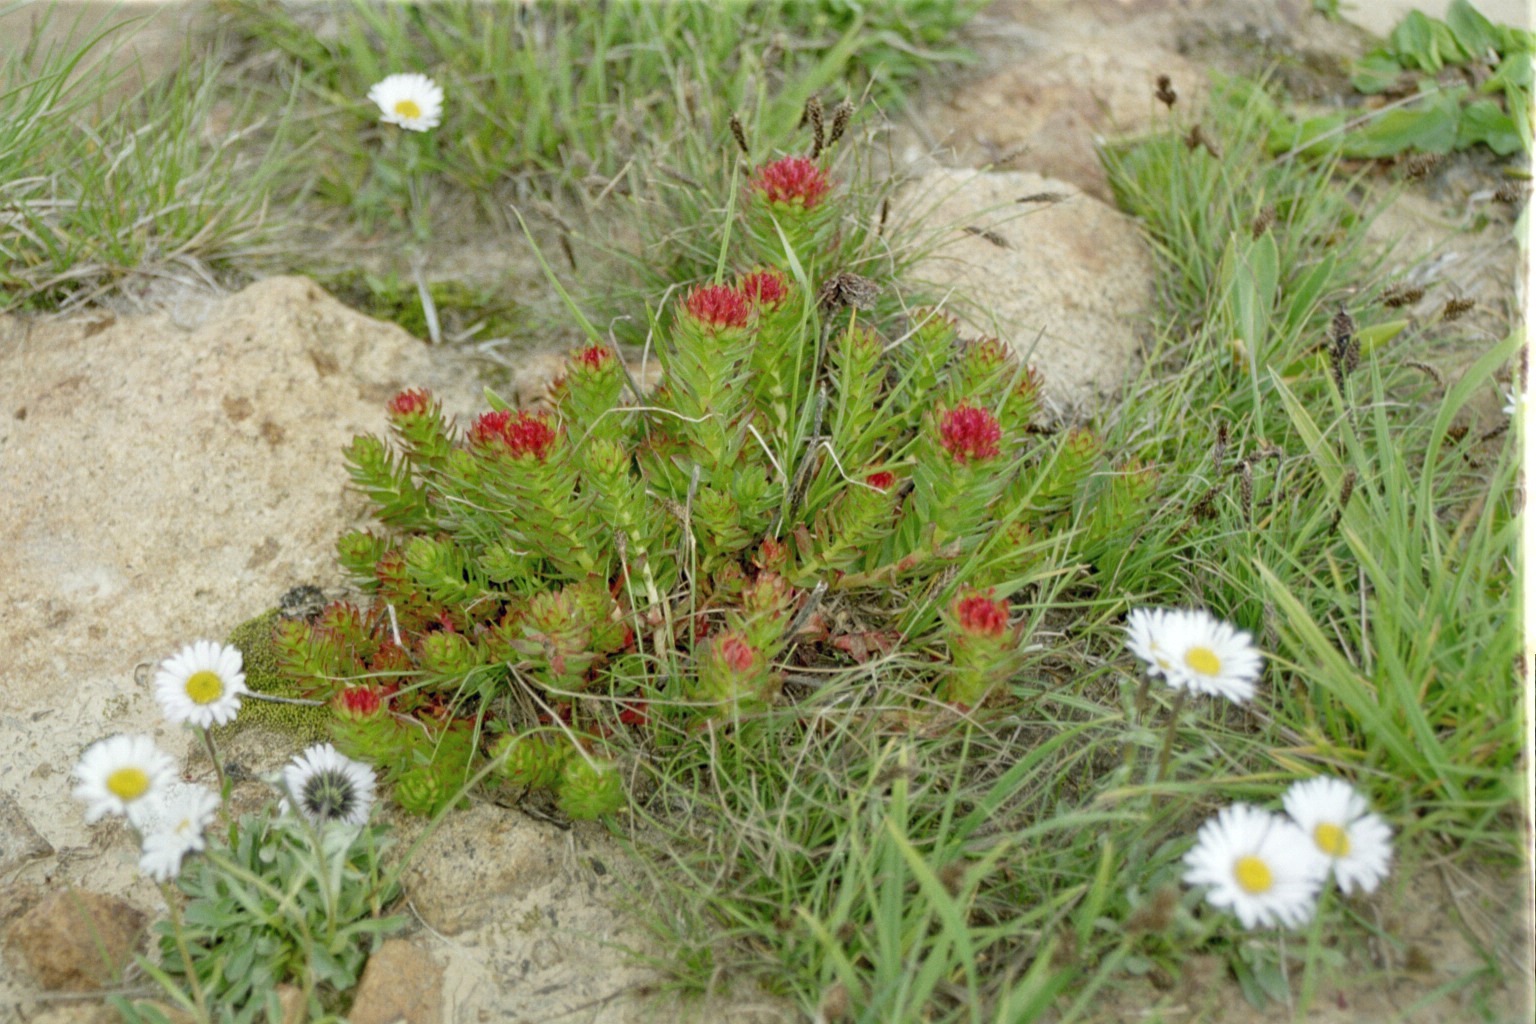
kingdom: Plantae
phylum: Tracheophyta
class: Magnoliopsida
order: Saxifragales
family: Crassulaceae
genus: Rhodiola
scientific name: Rhodiola integrifolia
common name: Western roseroot
